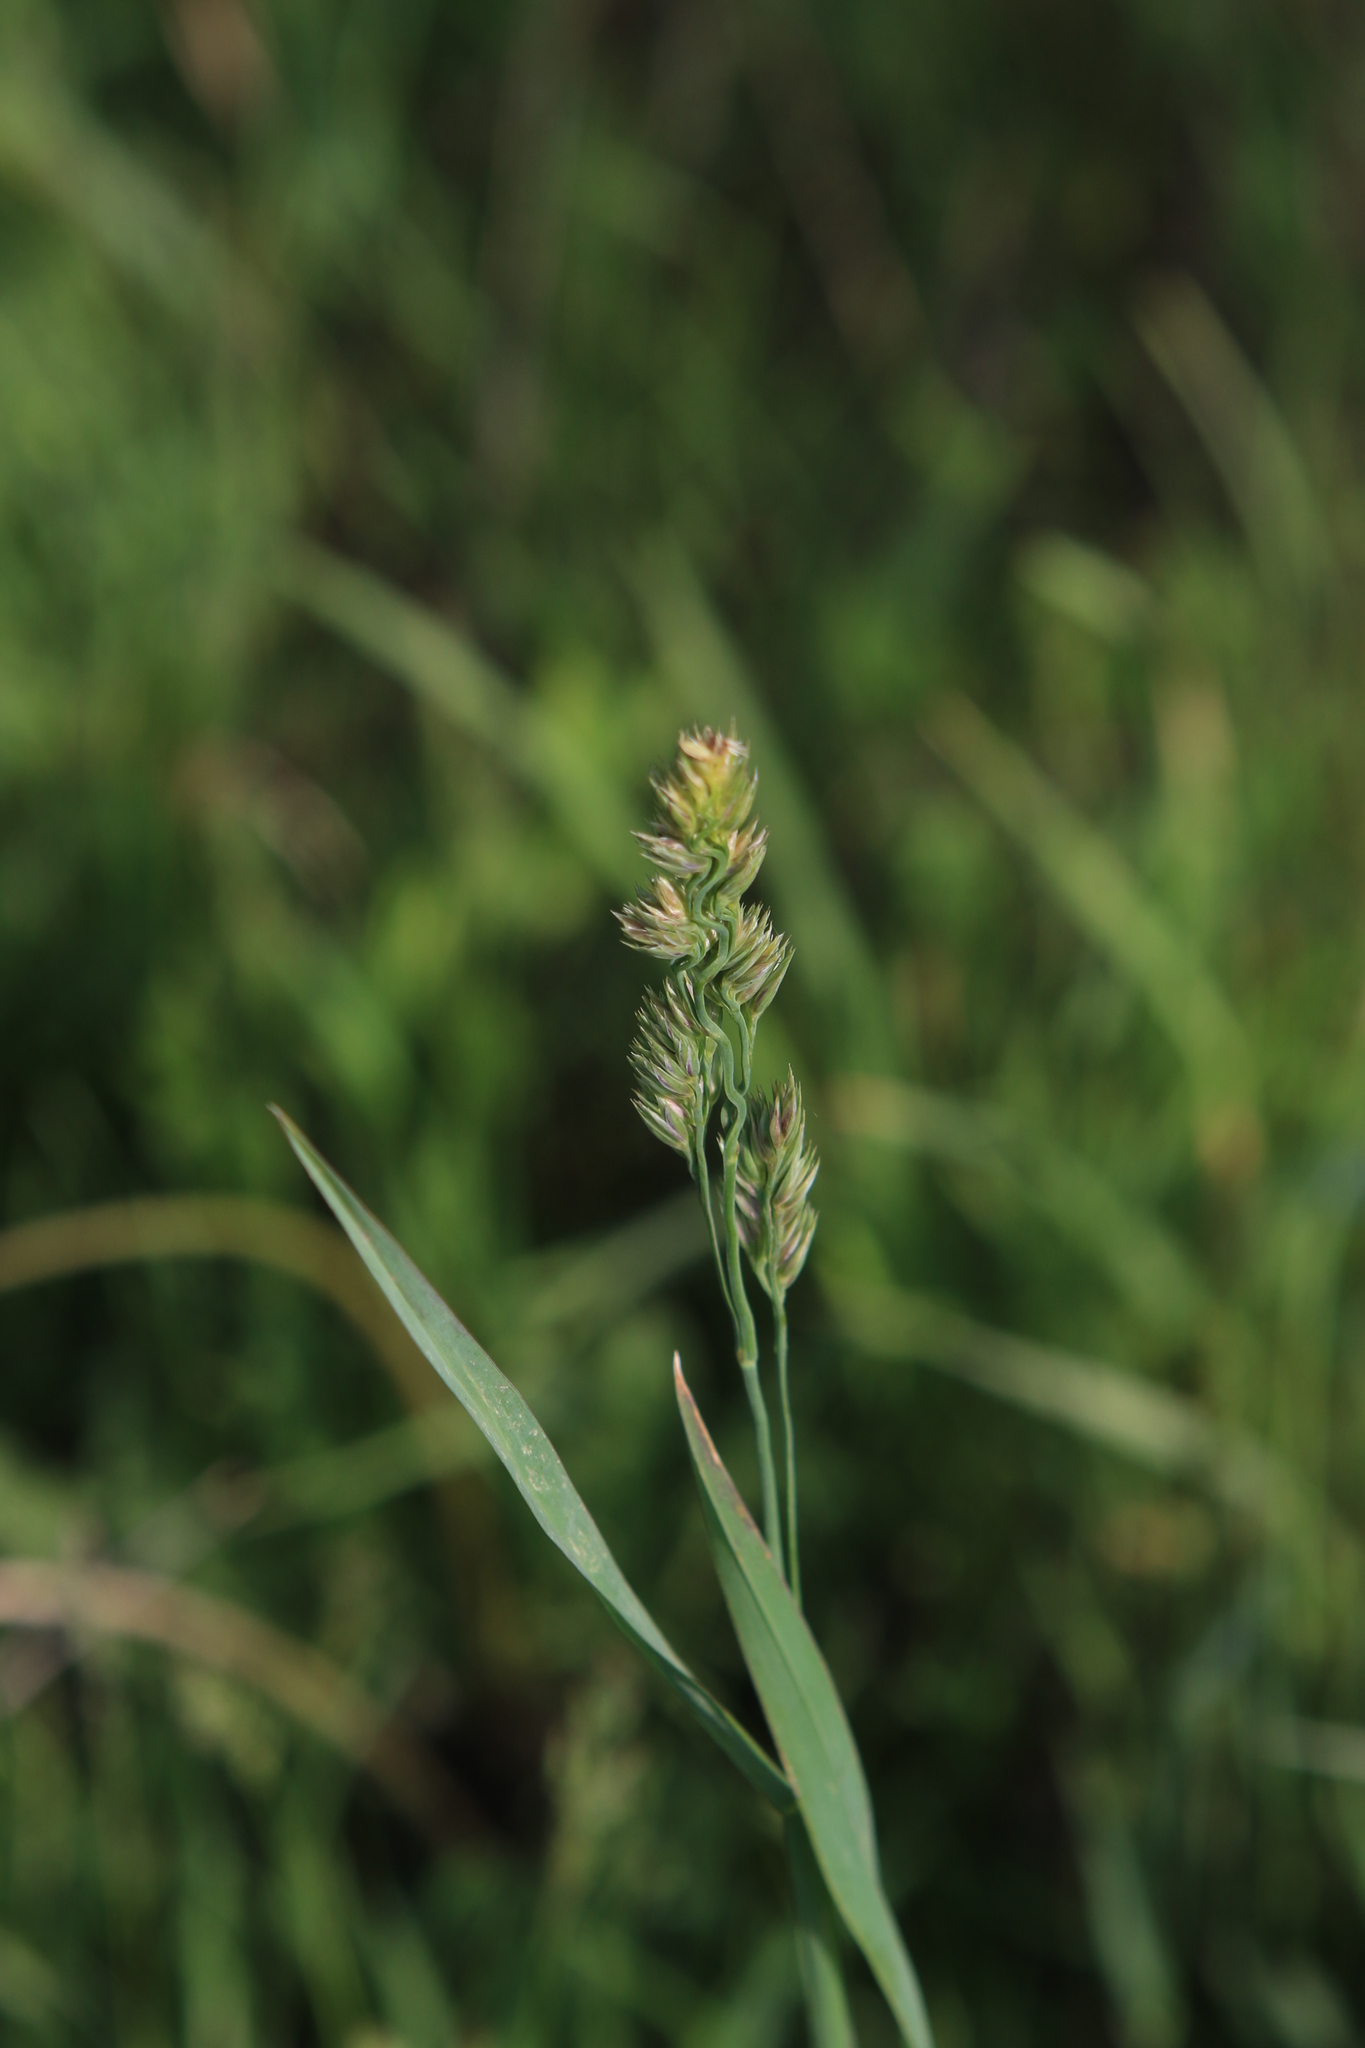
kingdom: Plantae
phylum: Tracheophyta
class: Liliopsida
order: Poales
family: Poaceae
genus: Dactylis
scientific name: Dactylis glomerata
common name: Orchardgrass
